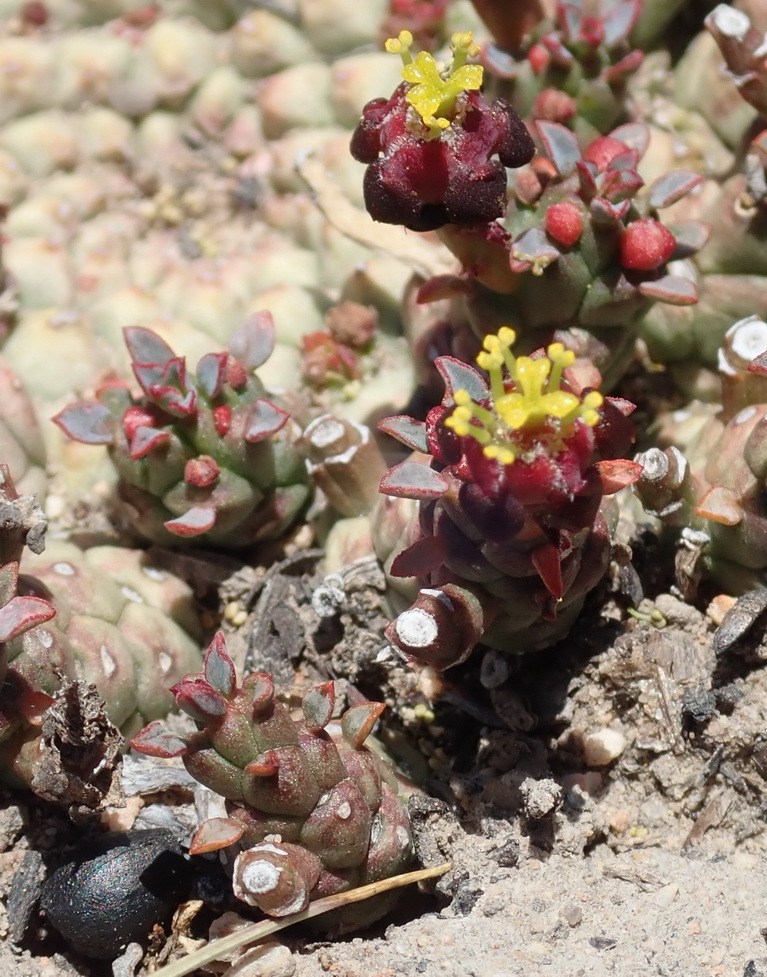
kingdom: Plantae
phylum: Tracheophyta
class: Magnoliopsida
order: Malpighiales
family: Euphorbiaceae
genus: Euphorbia
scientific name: Euphorbia procumbens
